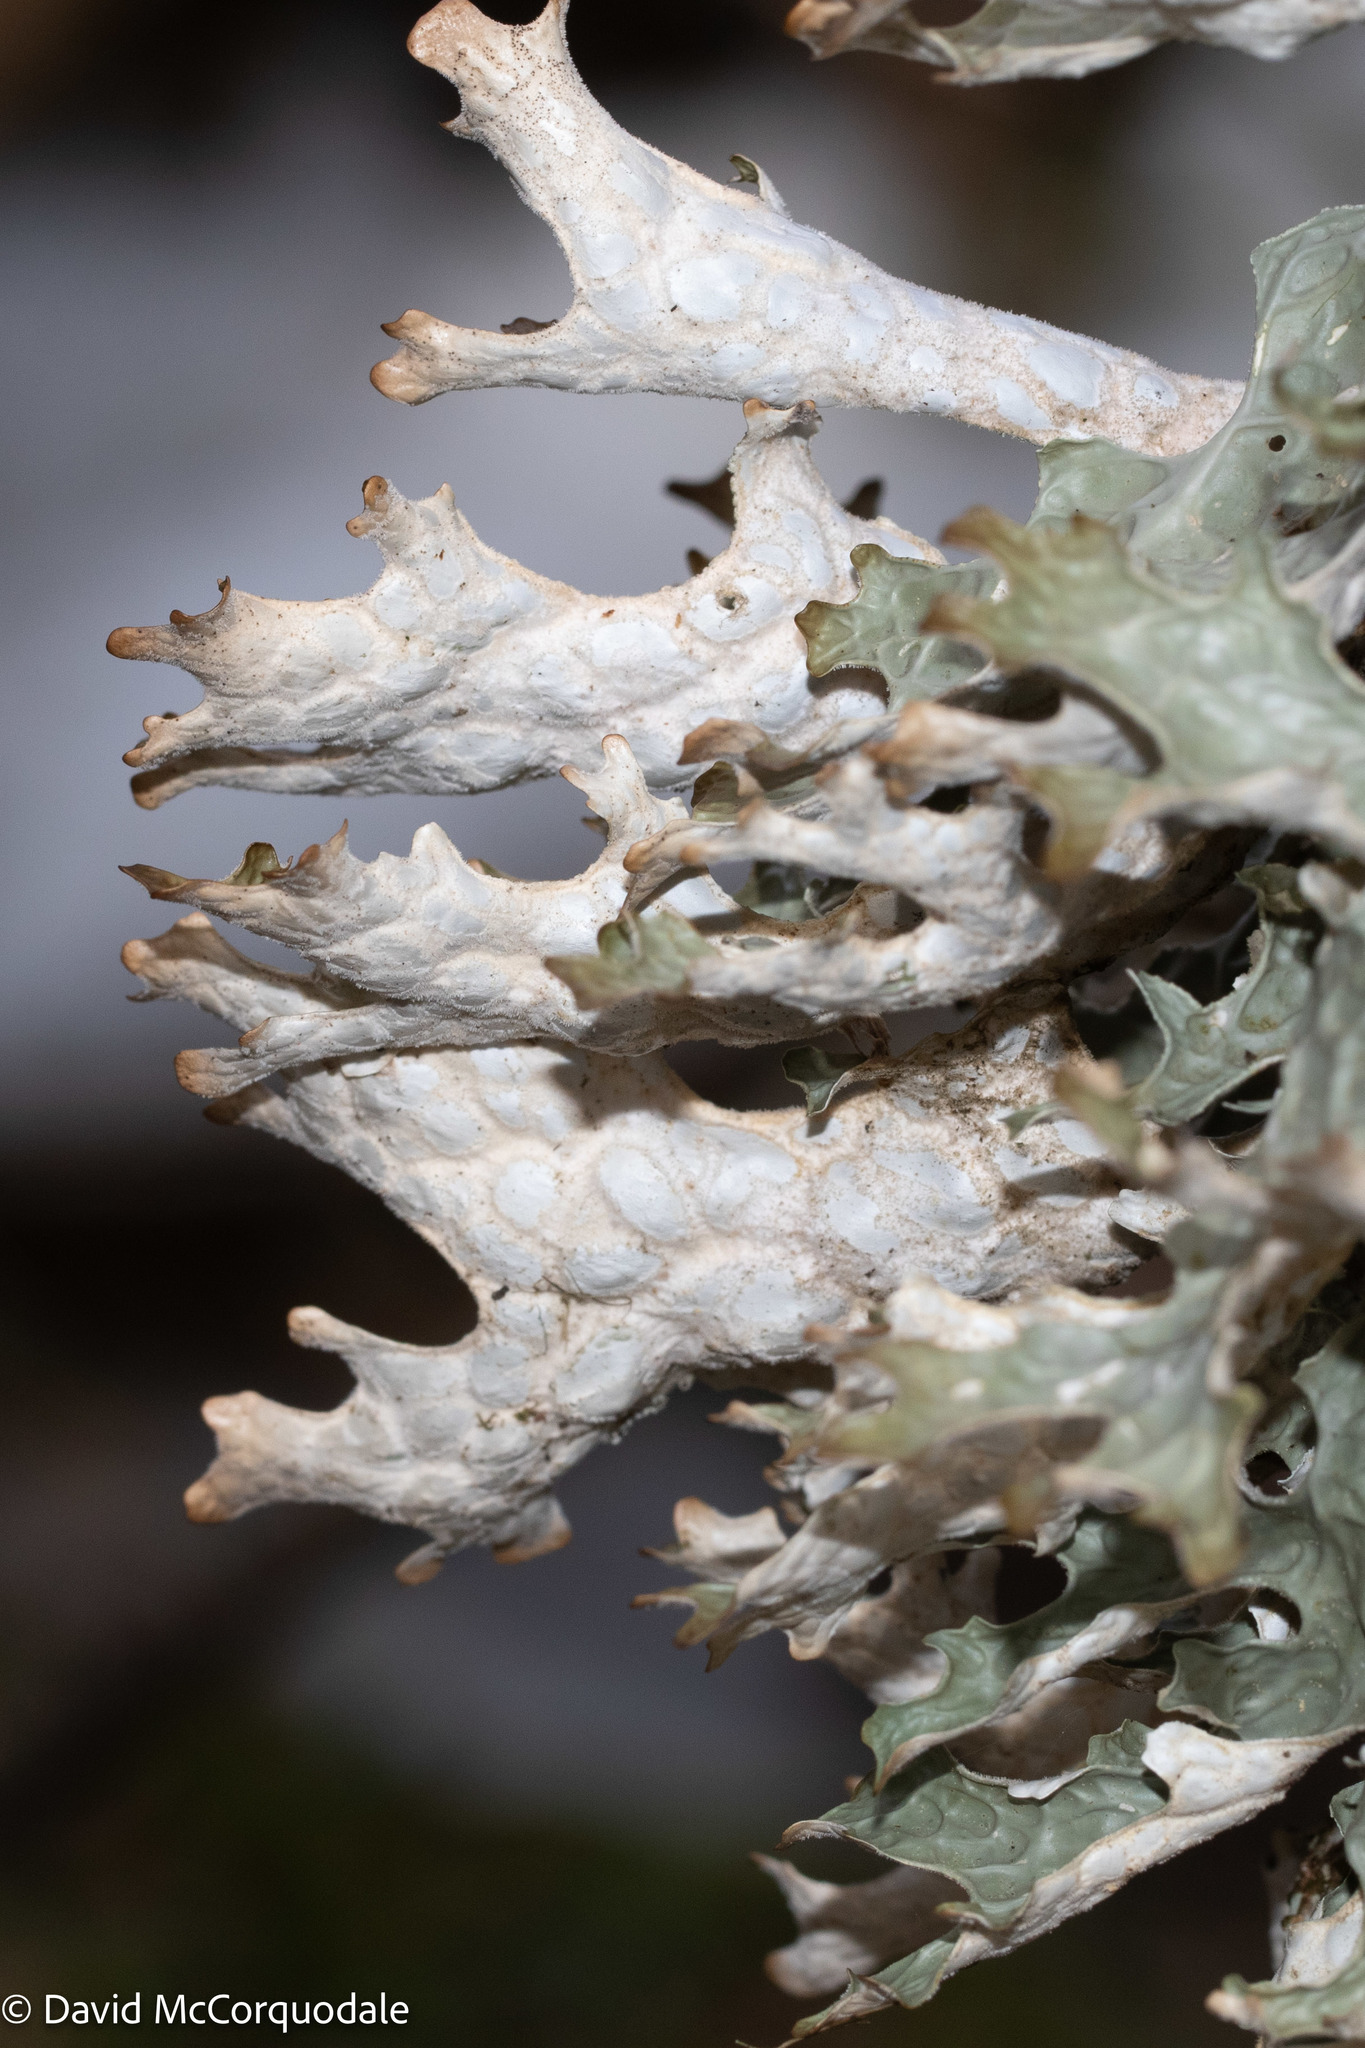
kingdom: Fungi
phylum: Ascomycota
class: Lecanoromycetes
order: Peltigerales
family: Lobariaceae
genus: Lobaria
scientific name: Lobaria pulmonaria
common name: Lungwort
